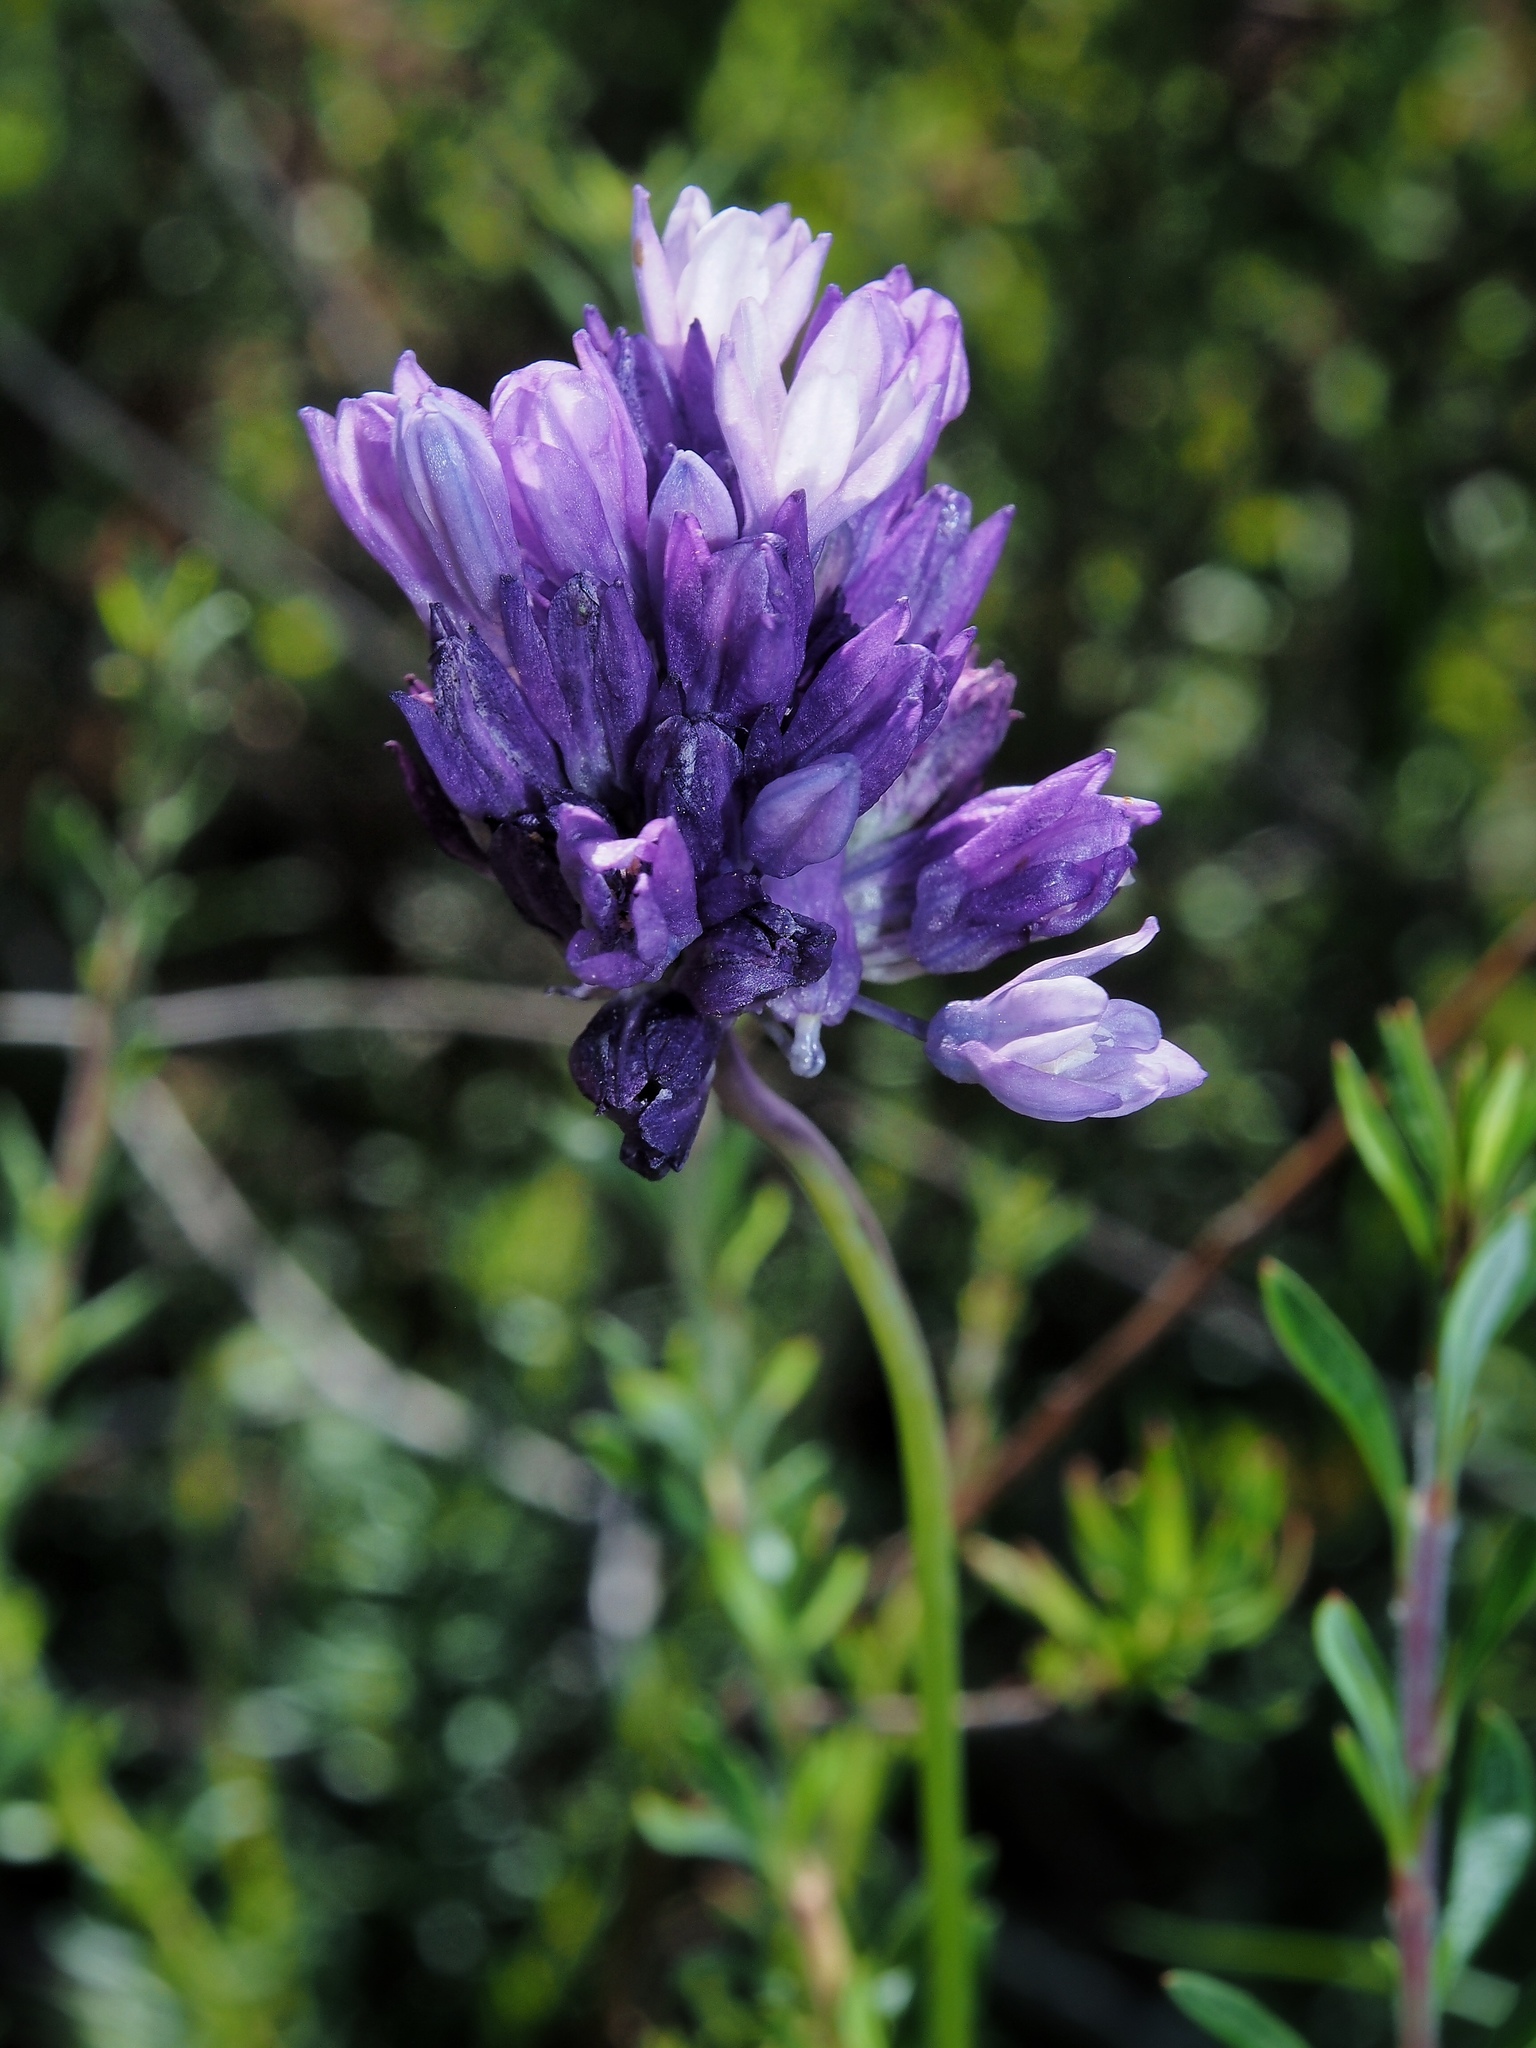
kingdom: Plantae
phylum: Tracheophyta
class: Liliopsida
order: Asparagales
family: Asparagaceae
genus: Dipterostemon
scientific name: Dipterostemon capitatus
